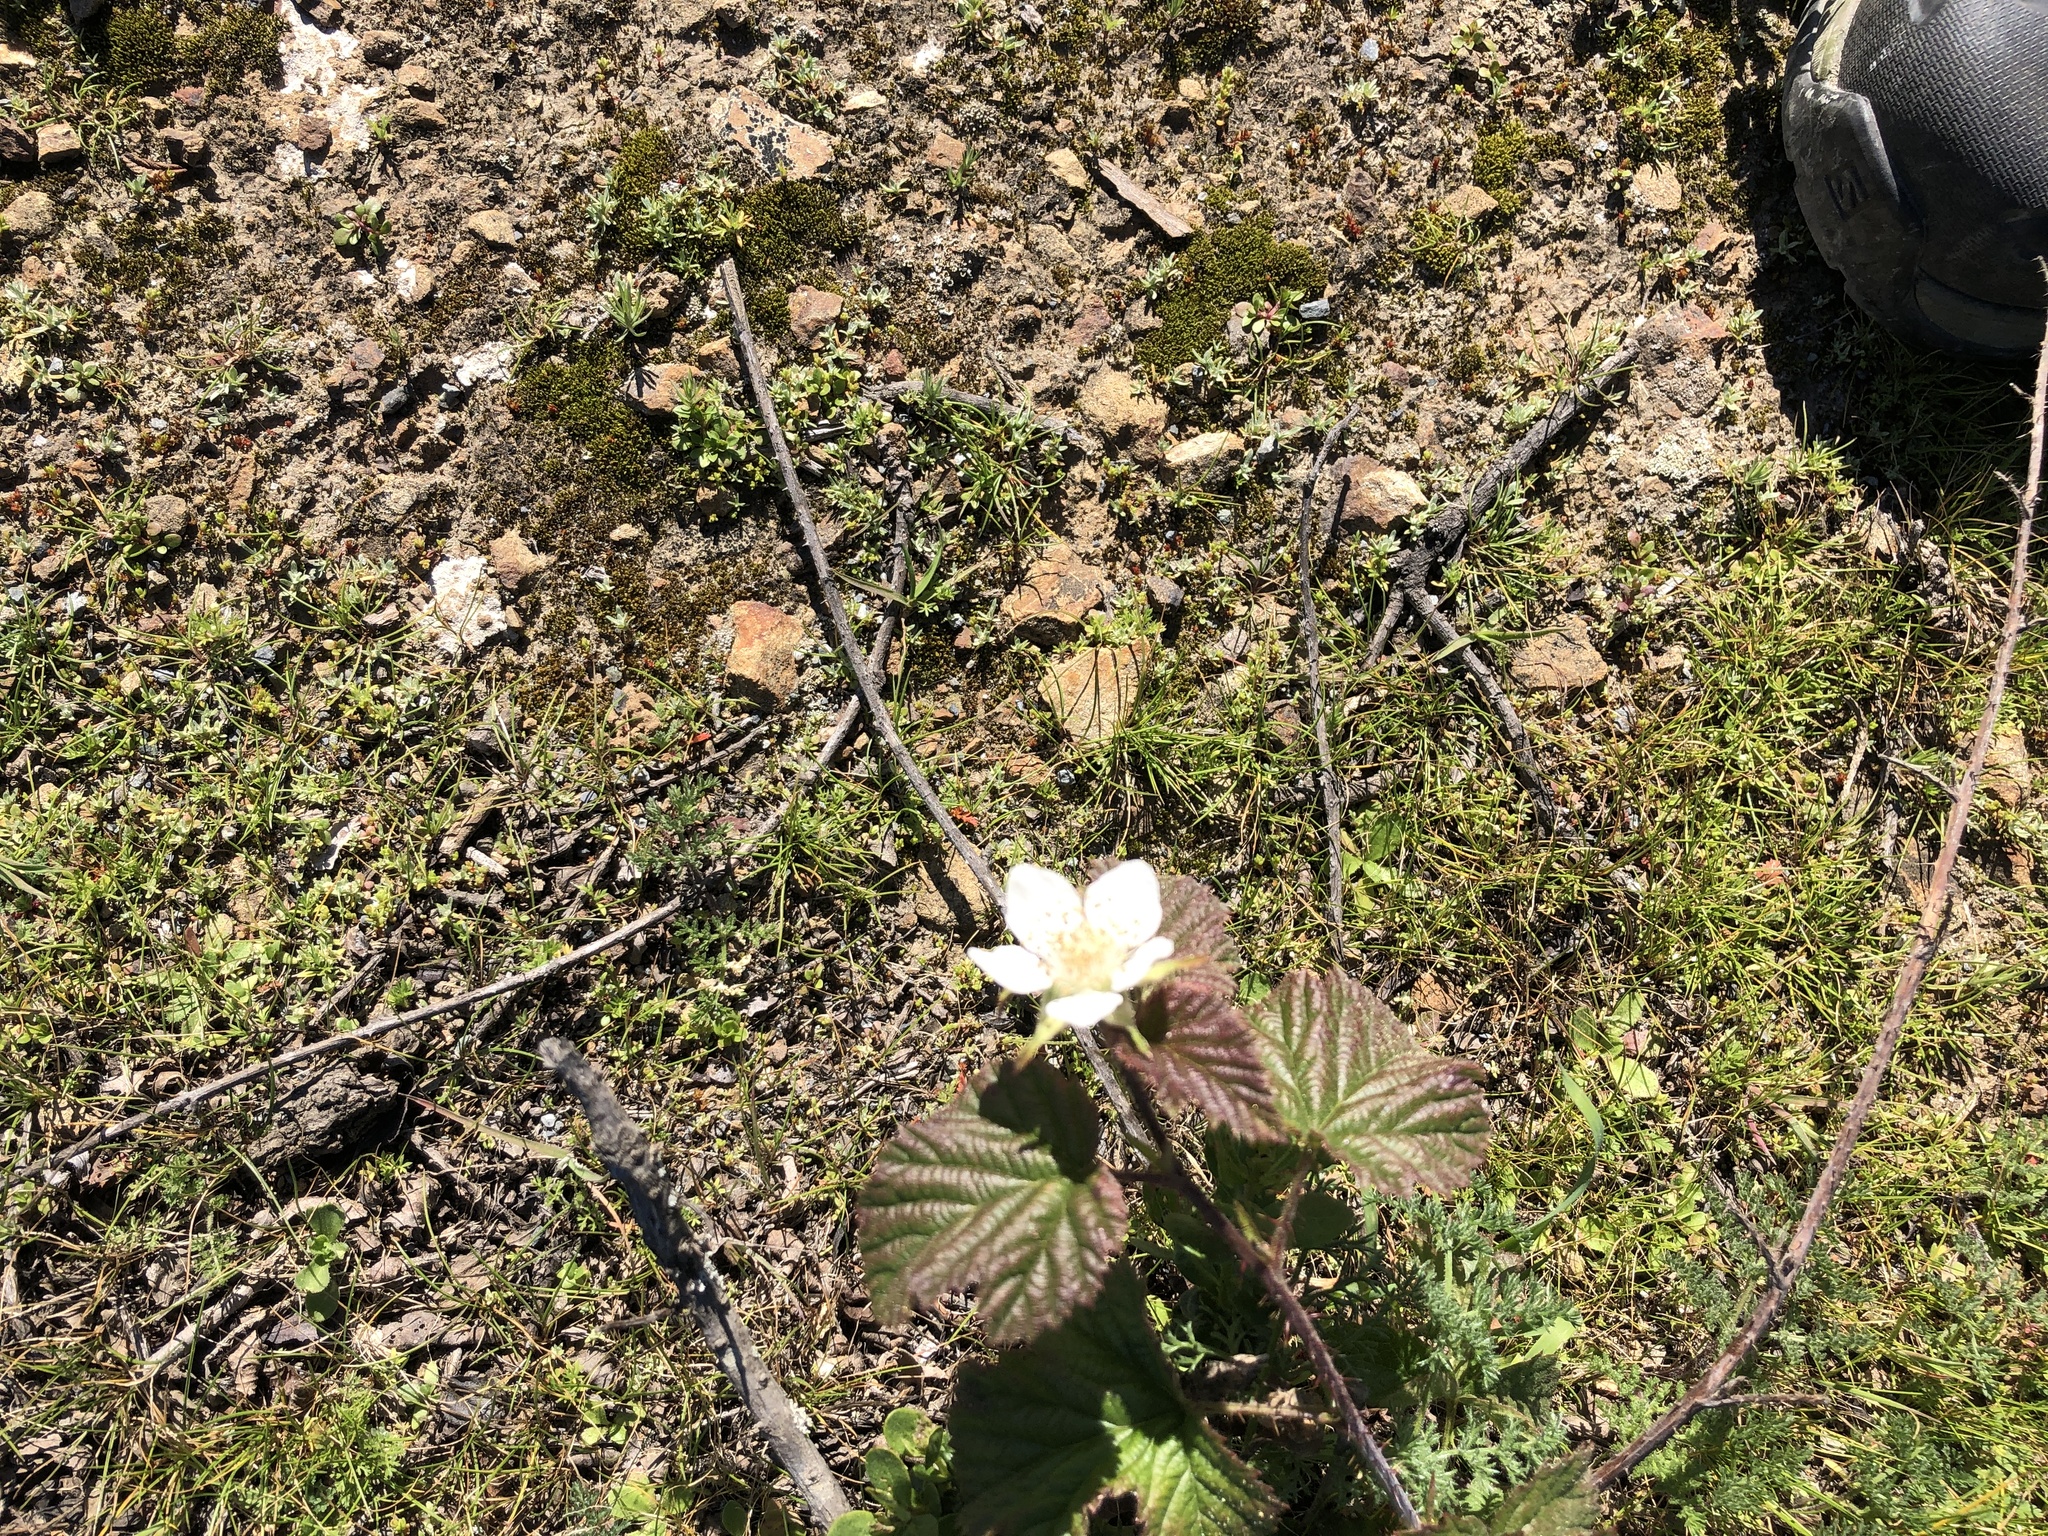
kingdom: Plantae
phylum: Tracheophyta
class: Magnoliopsida
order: Rosales
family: Rosaceae
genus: Rubus
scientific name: Rubus ursinus
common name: Pacific blackberry
